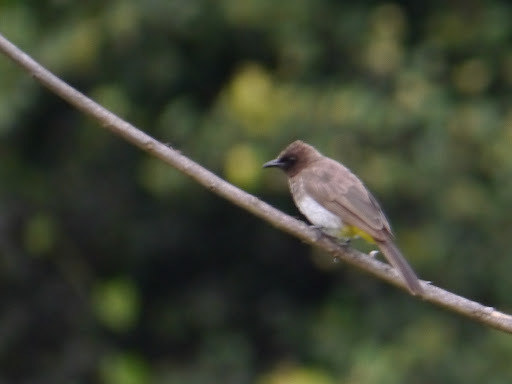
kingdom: Animalia
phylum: Chordata
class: Aves
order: Passeriformes
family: Pycnonotidae
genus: Pycnonotus
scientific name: Pycnonotus barbatus
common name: Common bulbul
